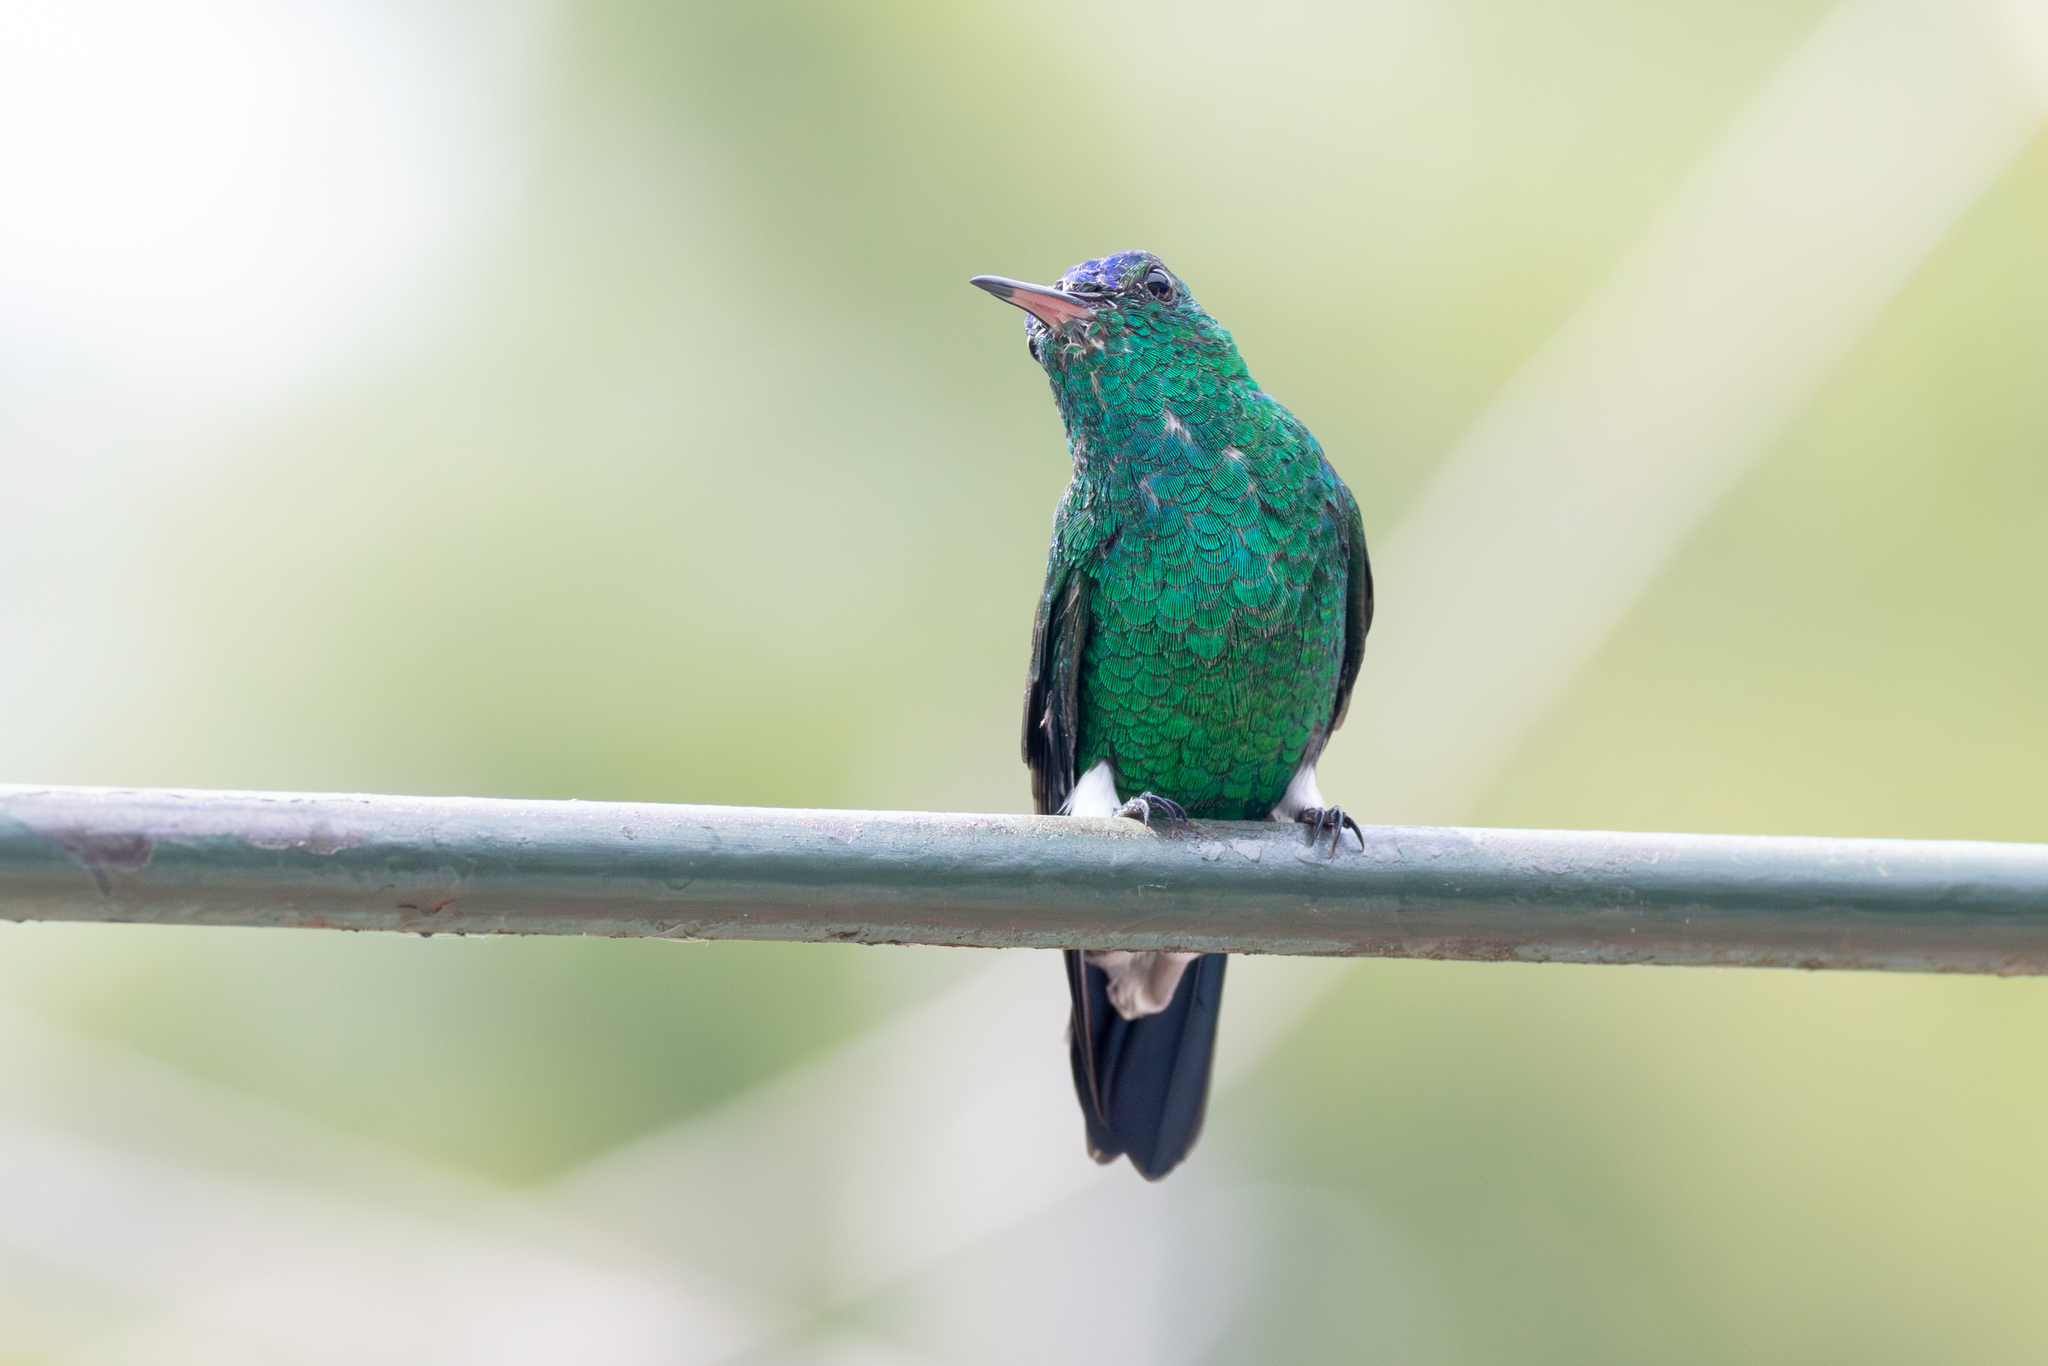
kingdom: Animalia
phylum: Chordata
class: Aves
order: Apodiformes
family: Trochilidae
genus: Saucerottia
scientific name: Saucerottia cyanifrons
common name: Indigo-capped hummingbird
